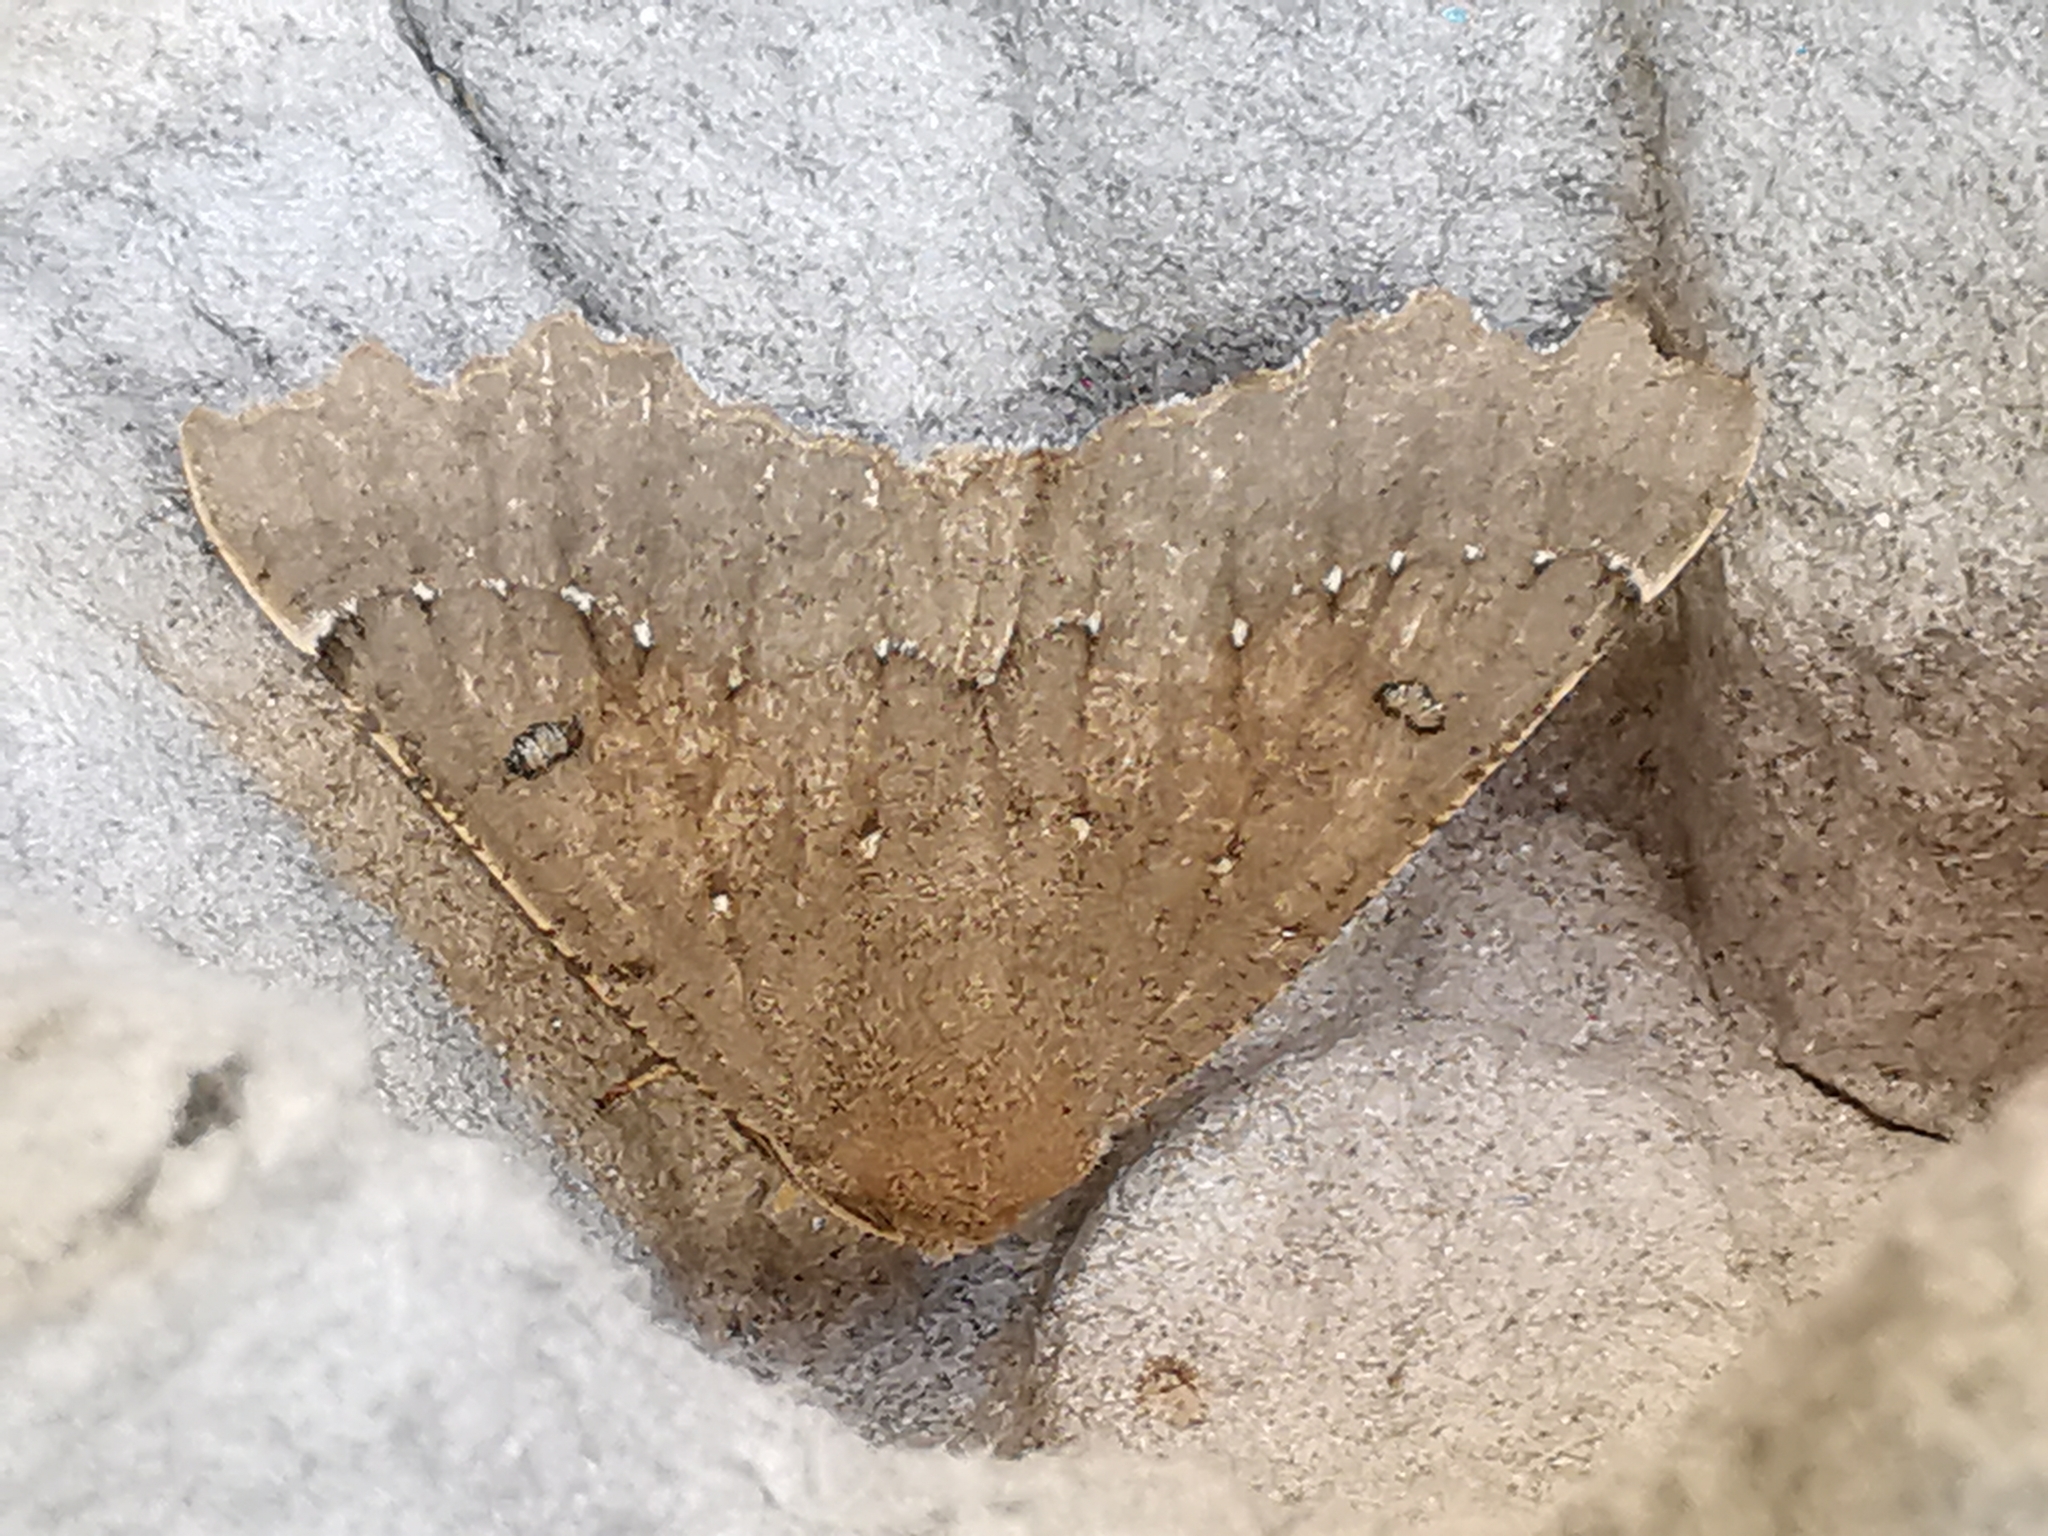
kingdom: Animalia
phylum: Arthropoda
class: Insecta
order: Lepidoptera
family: Geometridae
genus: Odontopera
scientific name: Odontopera bidentata
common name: Scalloped hazel
